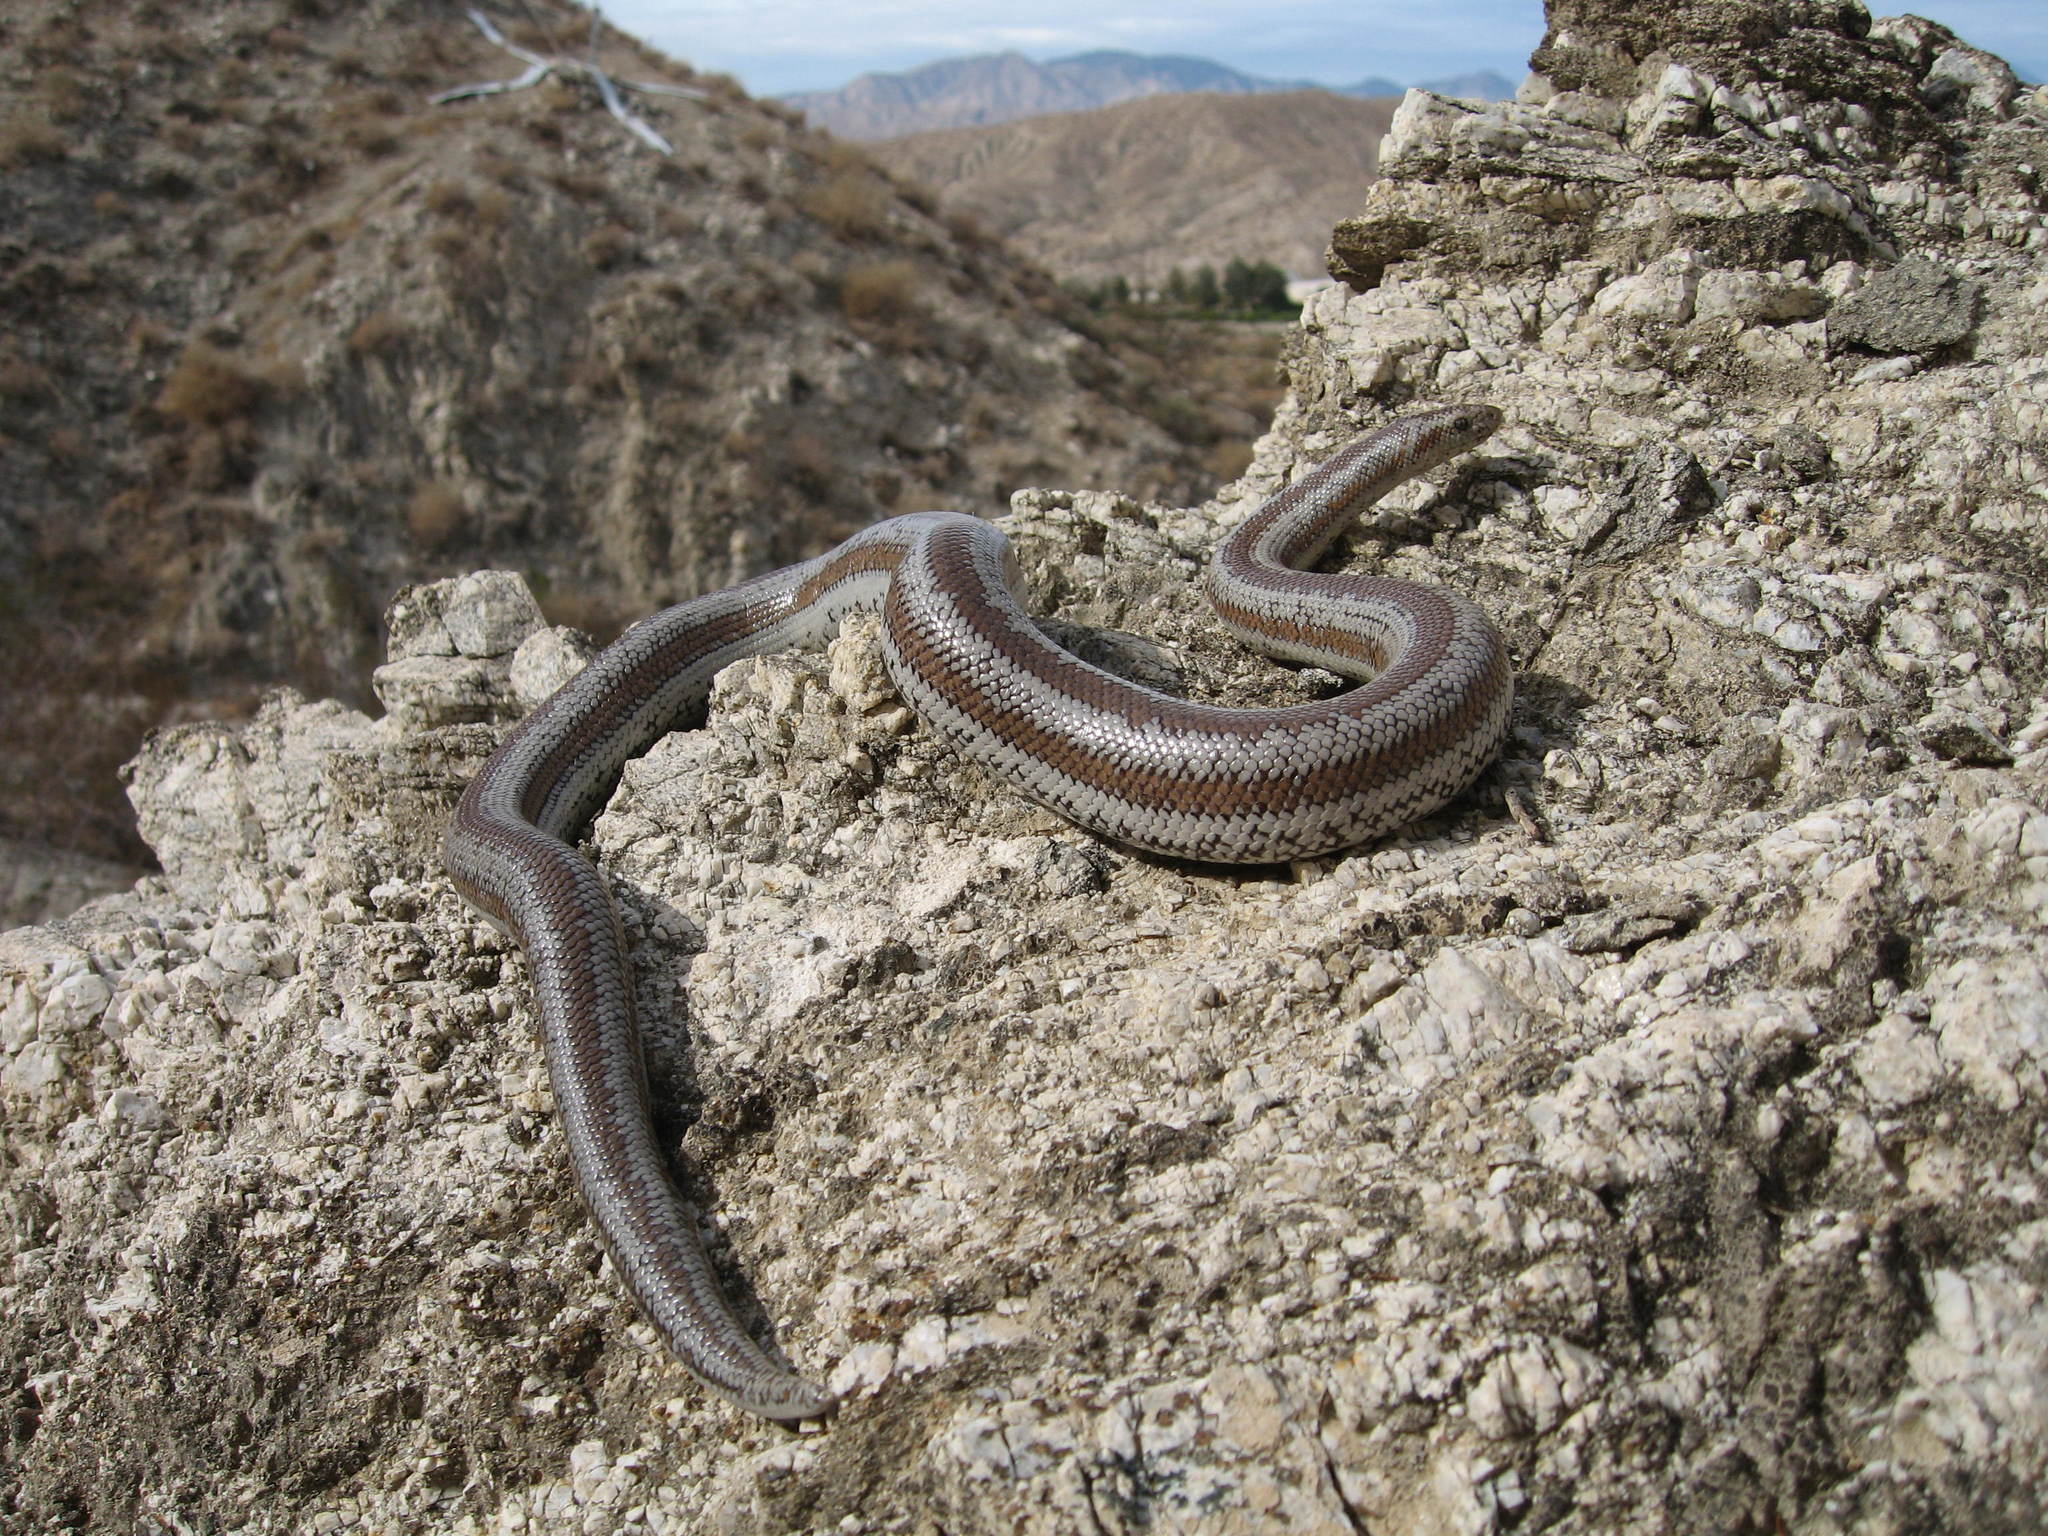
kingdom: Animalia
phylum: Chordata
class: Squamata
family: Boidae
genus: Lichanura
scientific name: Lichanura orcutti
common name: Northern three-lined boa
